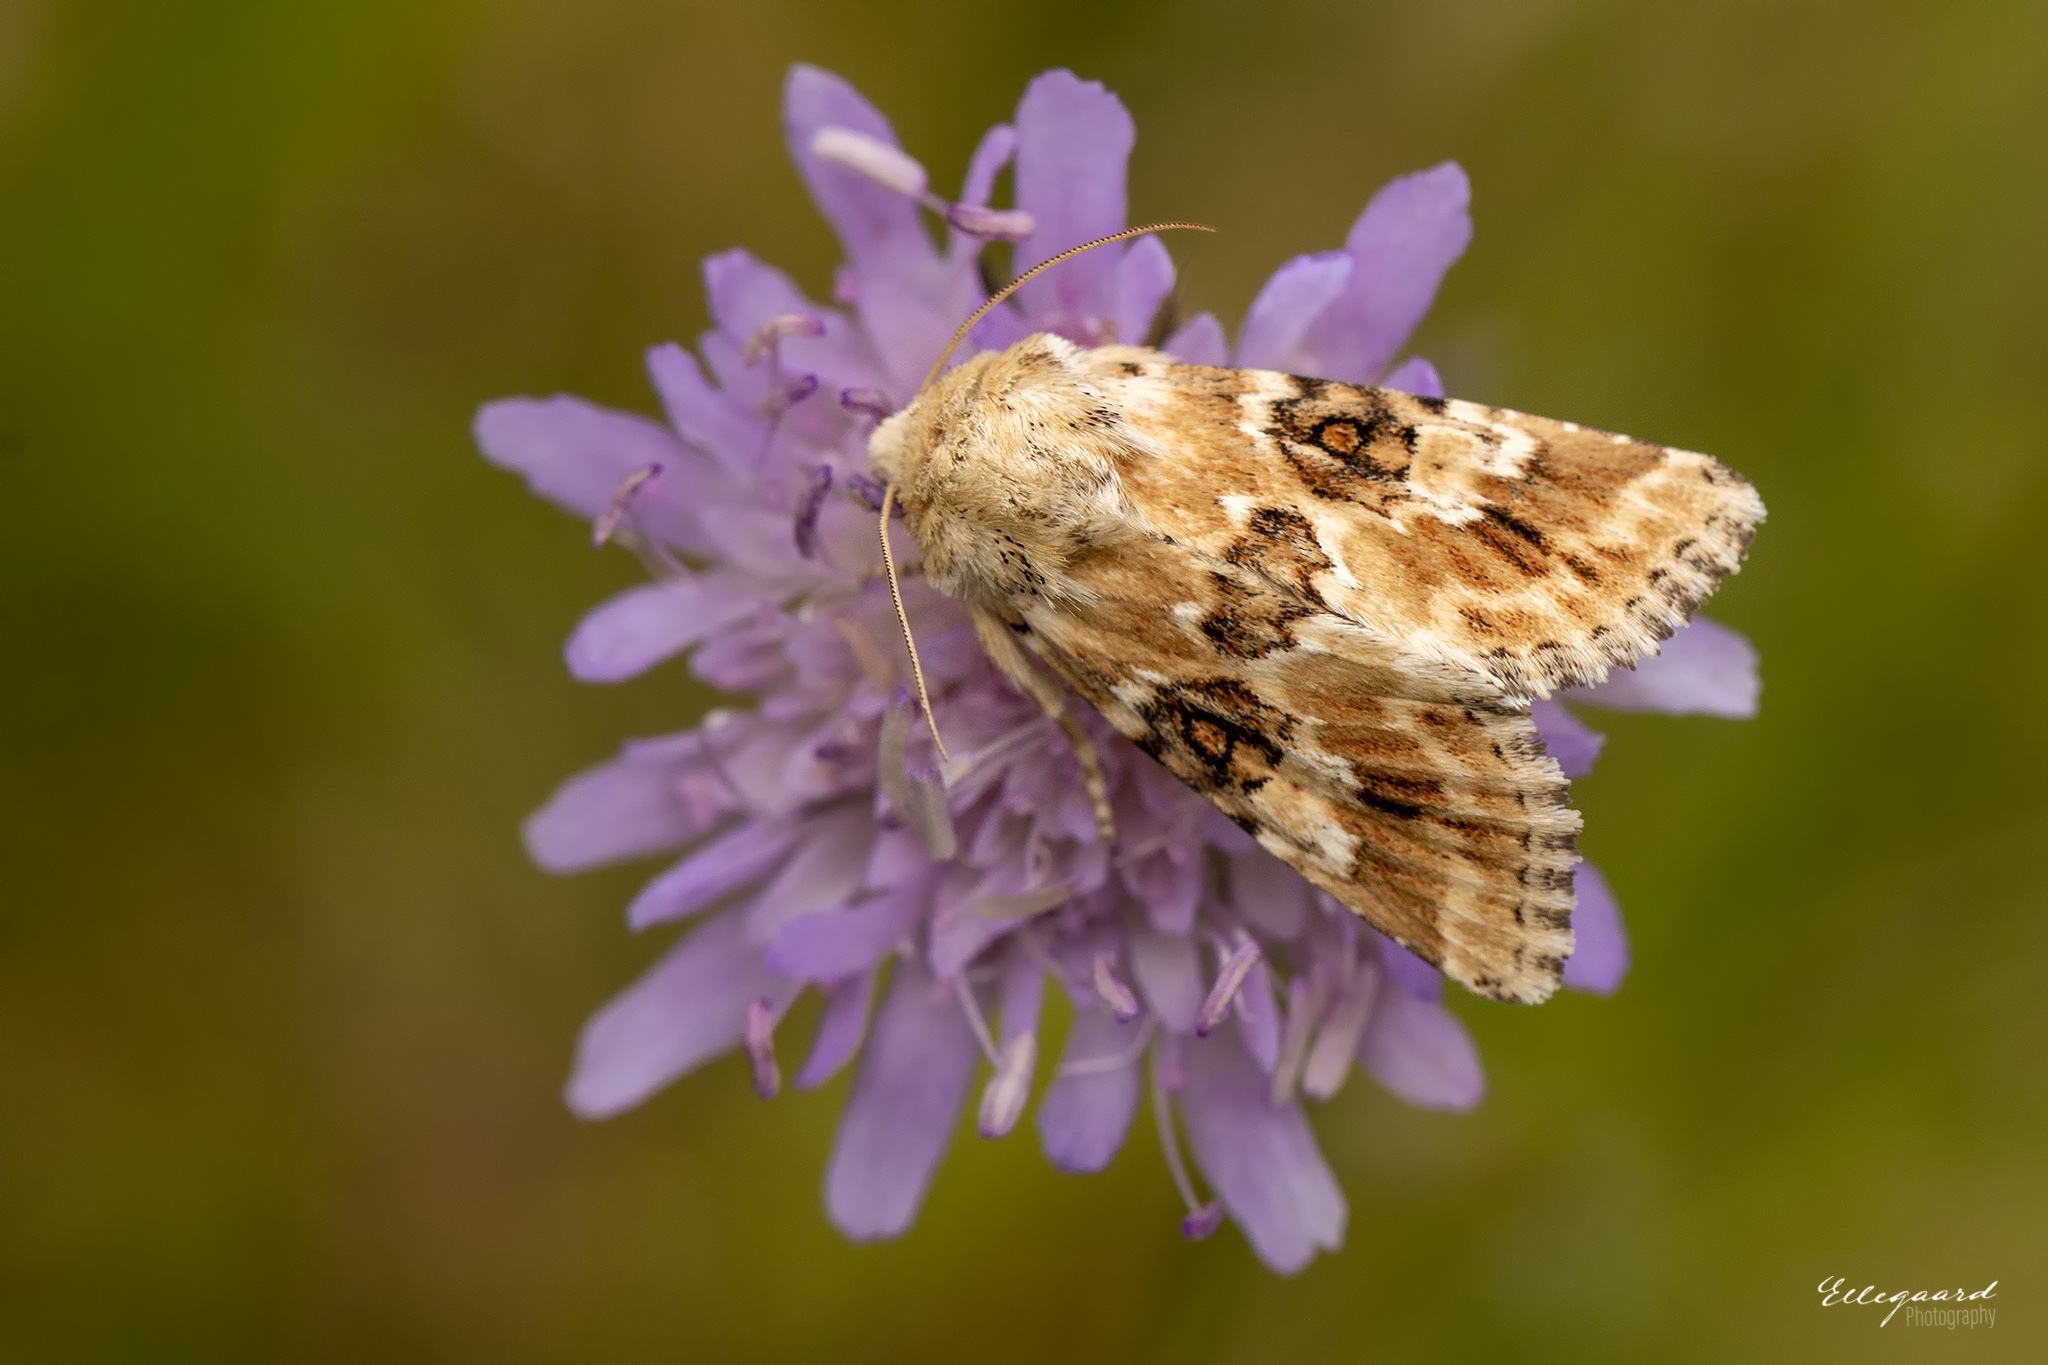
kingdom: Animalia
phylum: Arthropoda
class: Insecta
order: Lepidoptera
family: Noctuidae
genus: Eremobia
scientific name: Eremobia ochroleuca
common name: Dusky sallow
